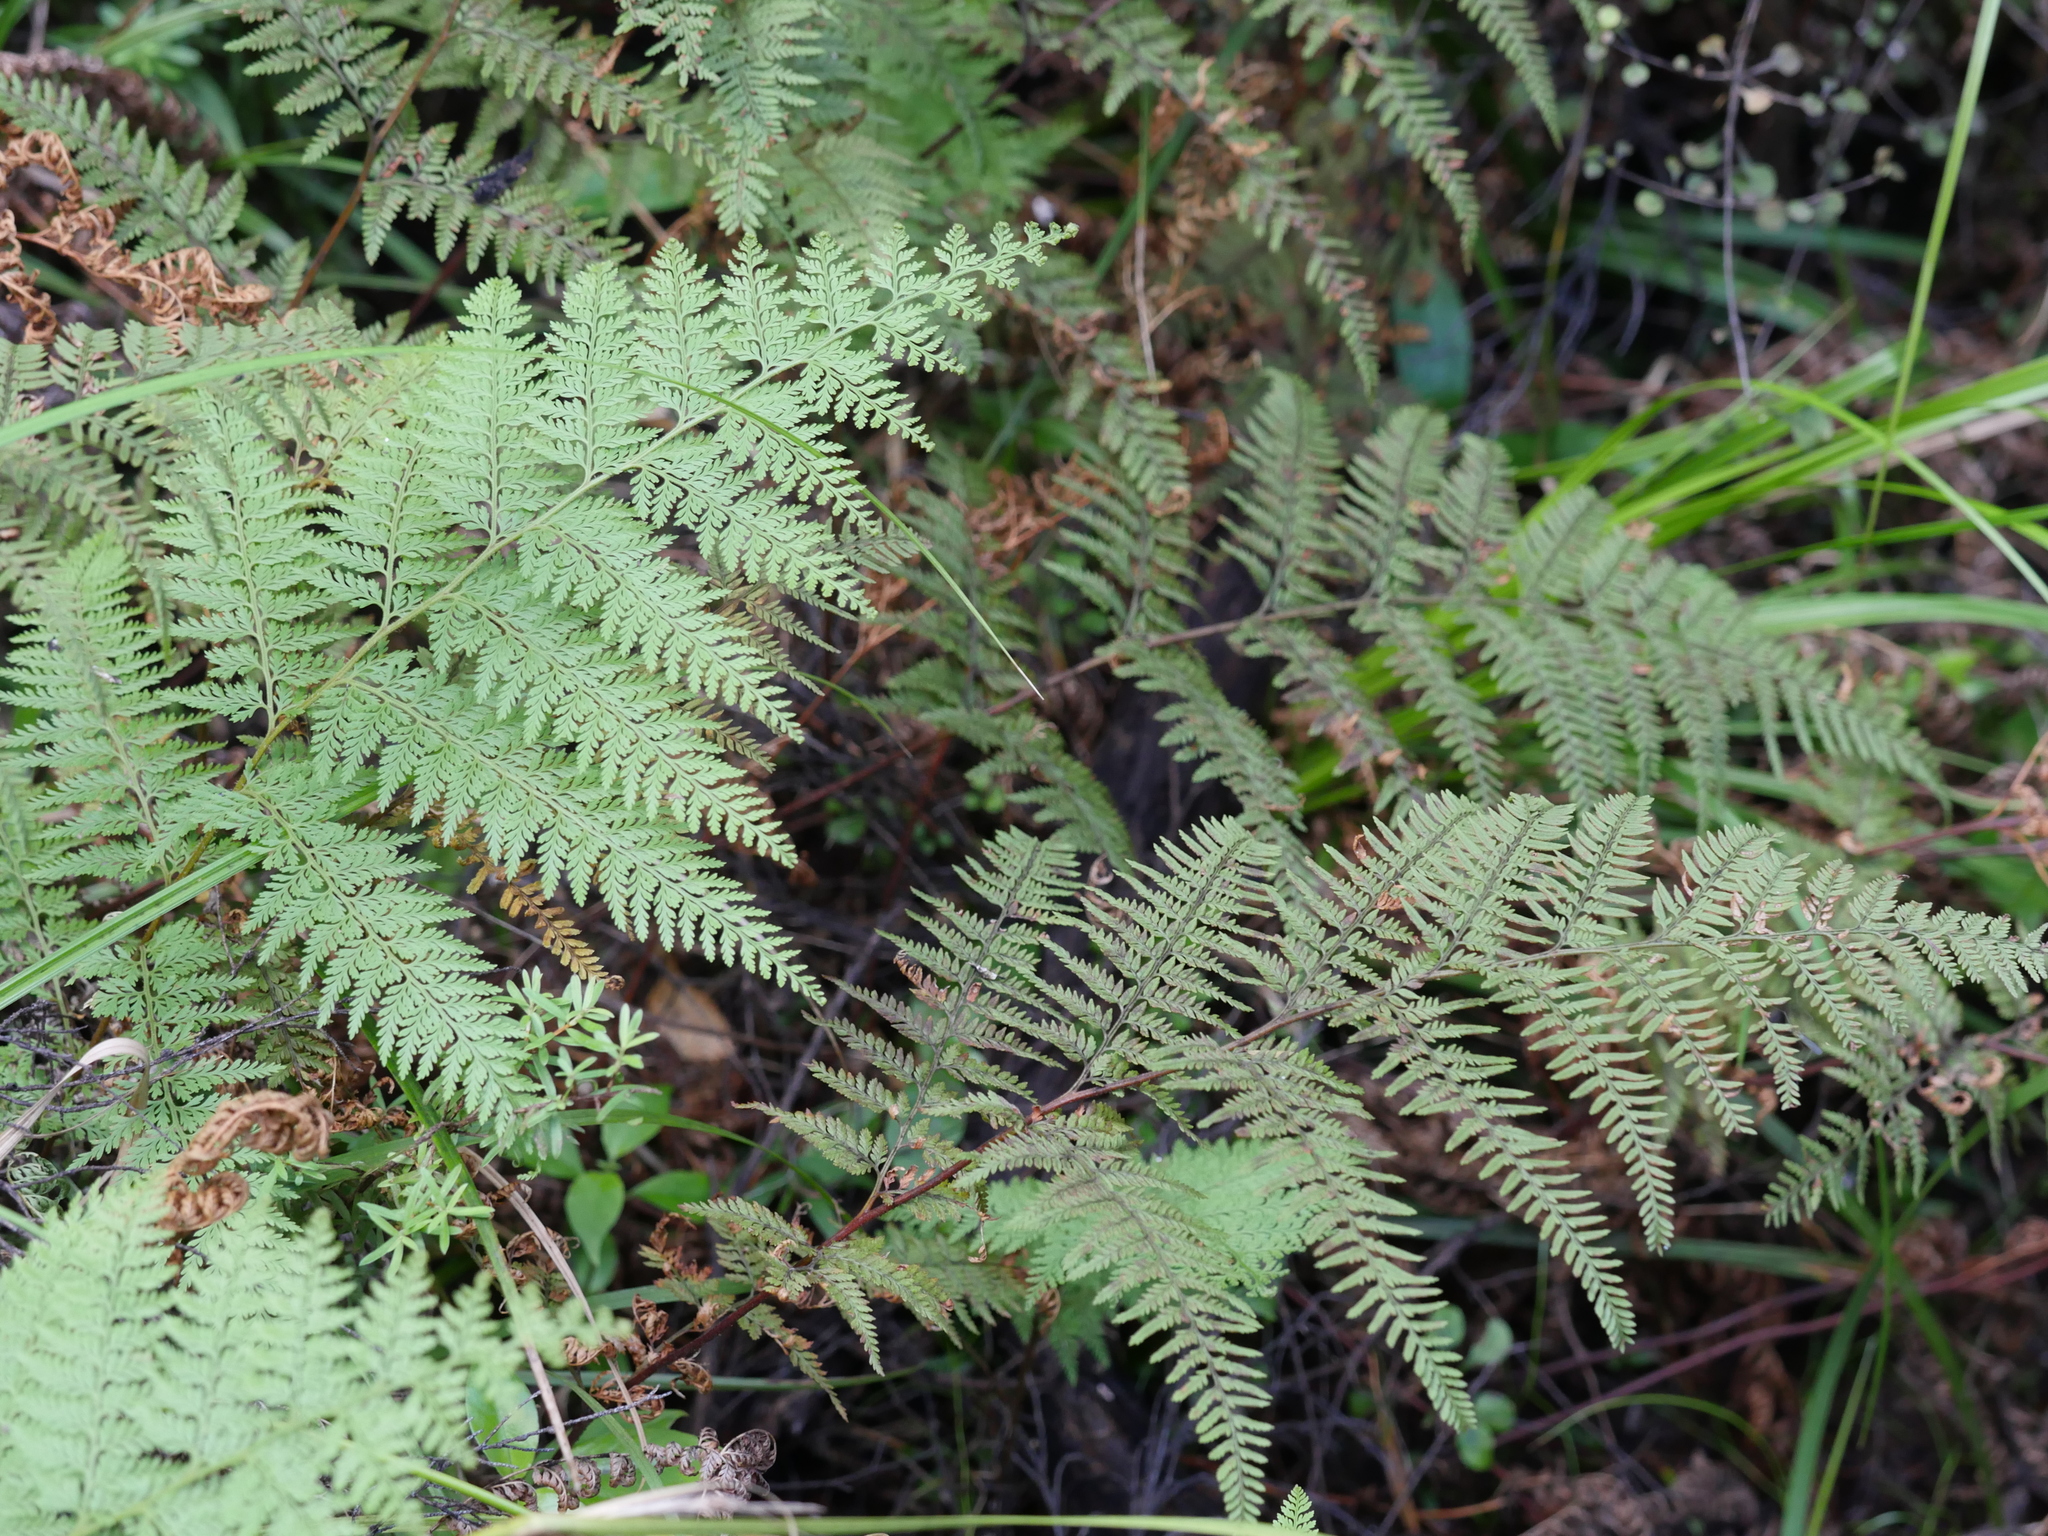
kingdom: Plantae
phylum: Tracheophyta
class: Polypodiopsida
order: Polypodiales
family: Dennstaedtiaceae
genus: Paesia
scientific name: Paesia scaberula
